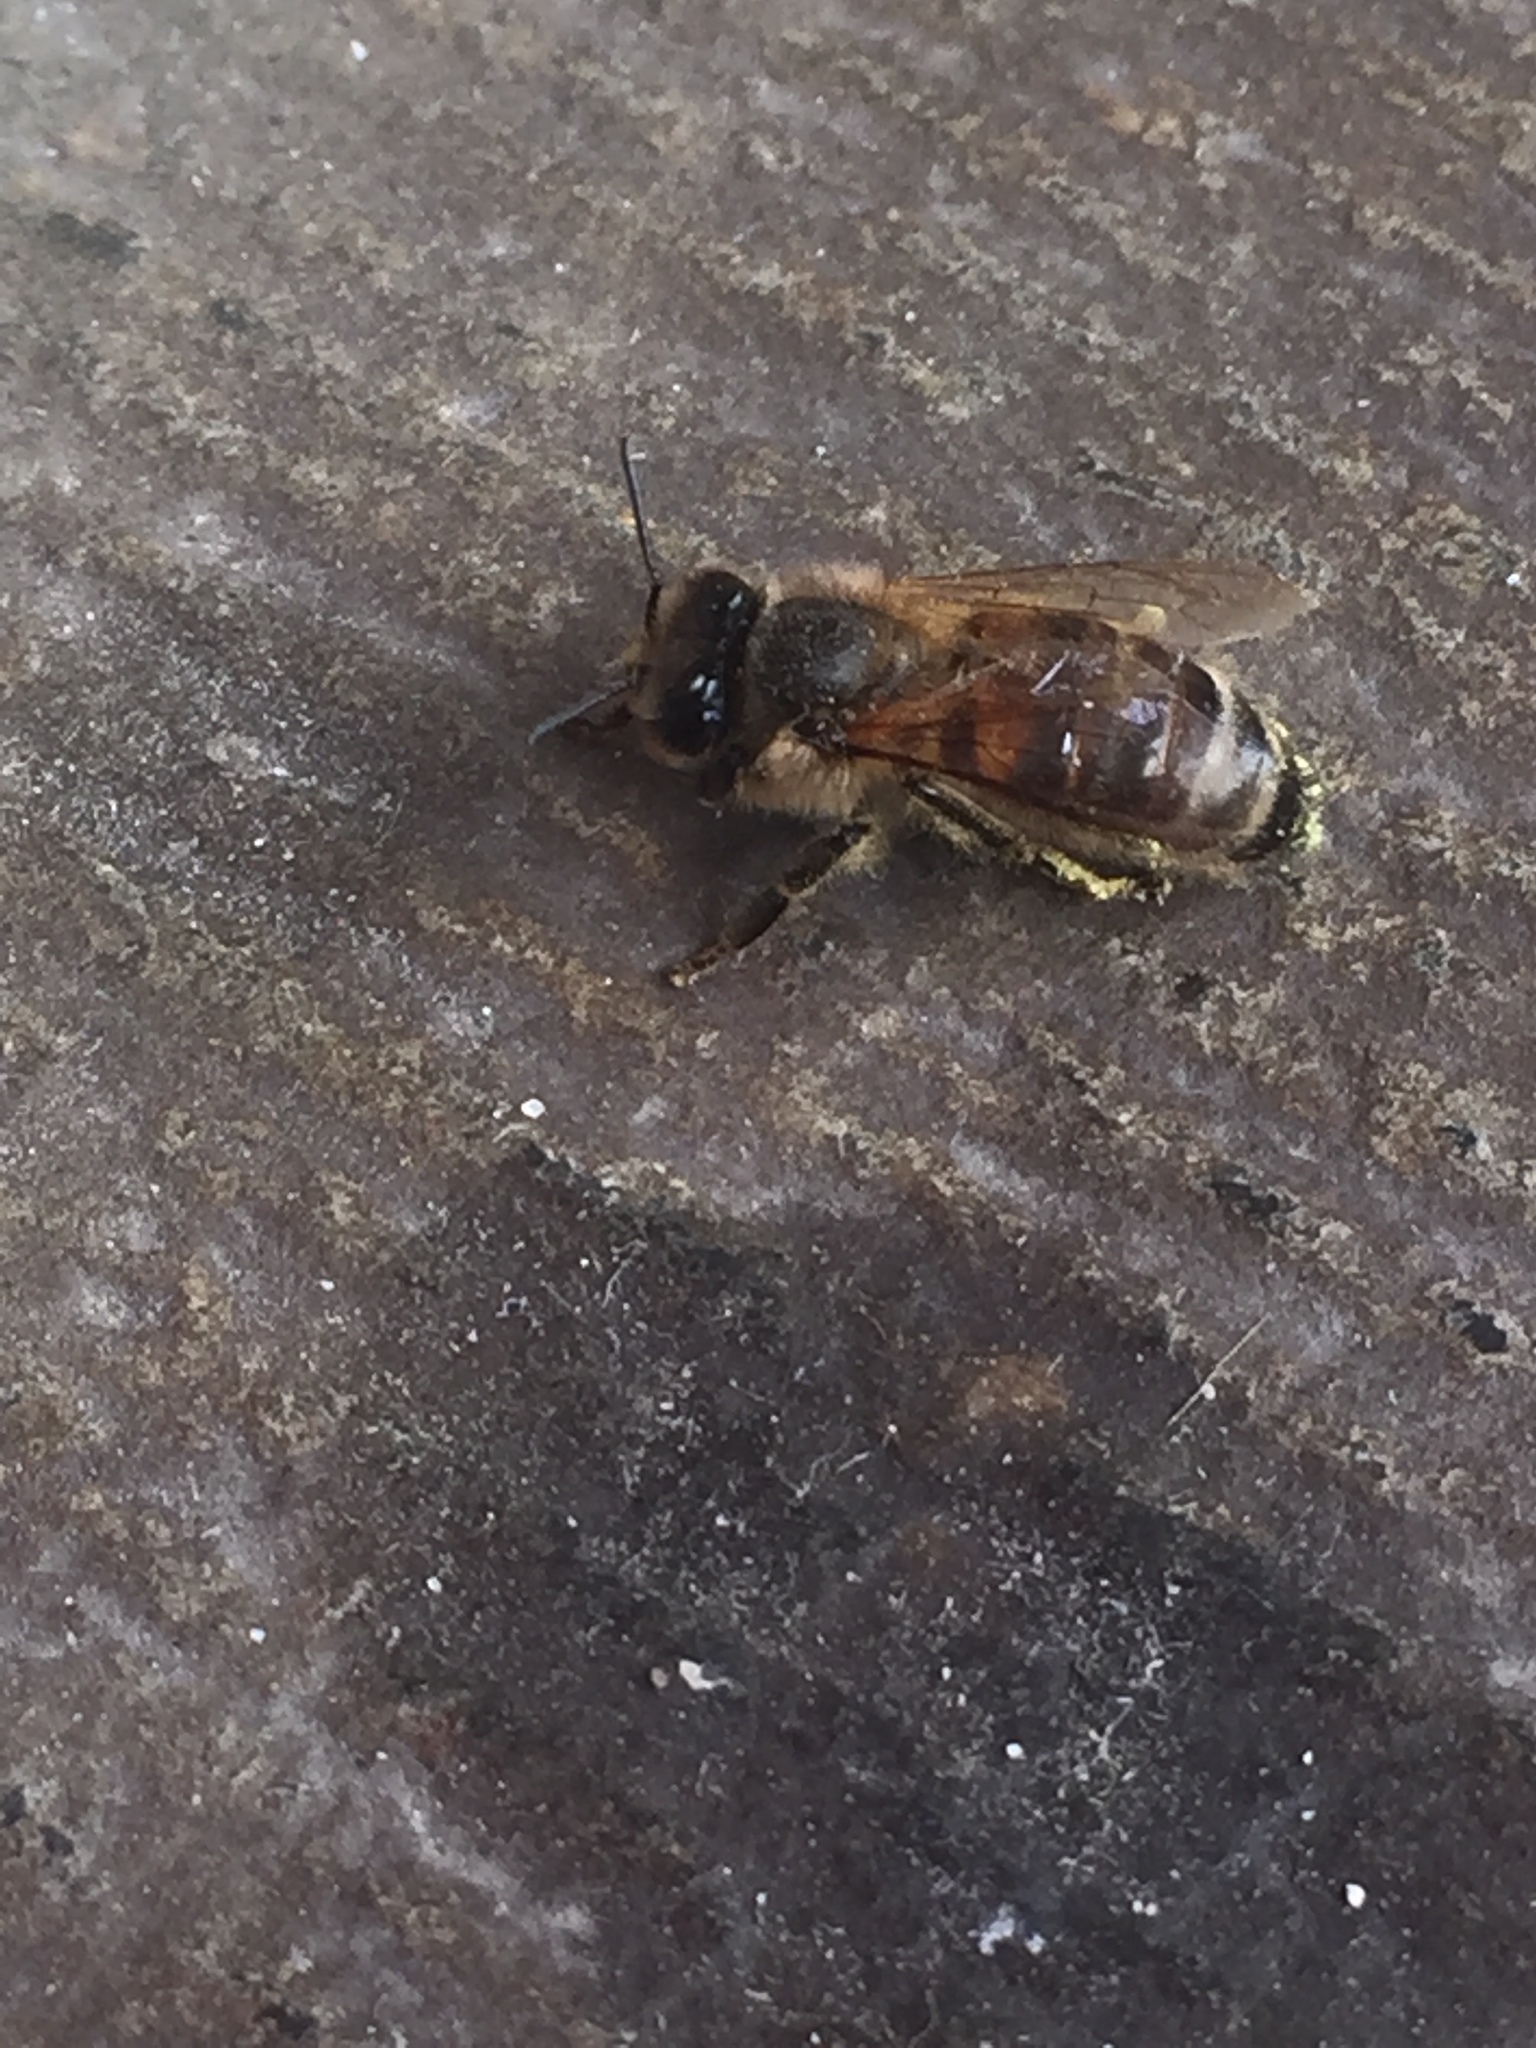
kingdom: Animalia
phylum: Arthropoda
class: Insecta
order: Hymenoptera
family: Apidae
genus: Apis
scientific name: Apis mellifera
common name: Honey bee
